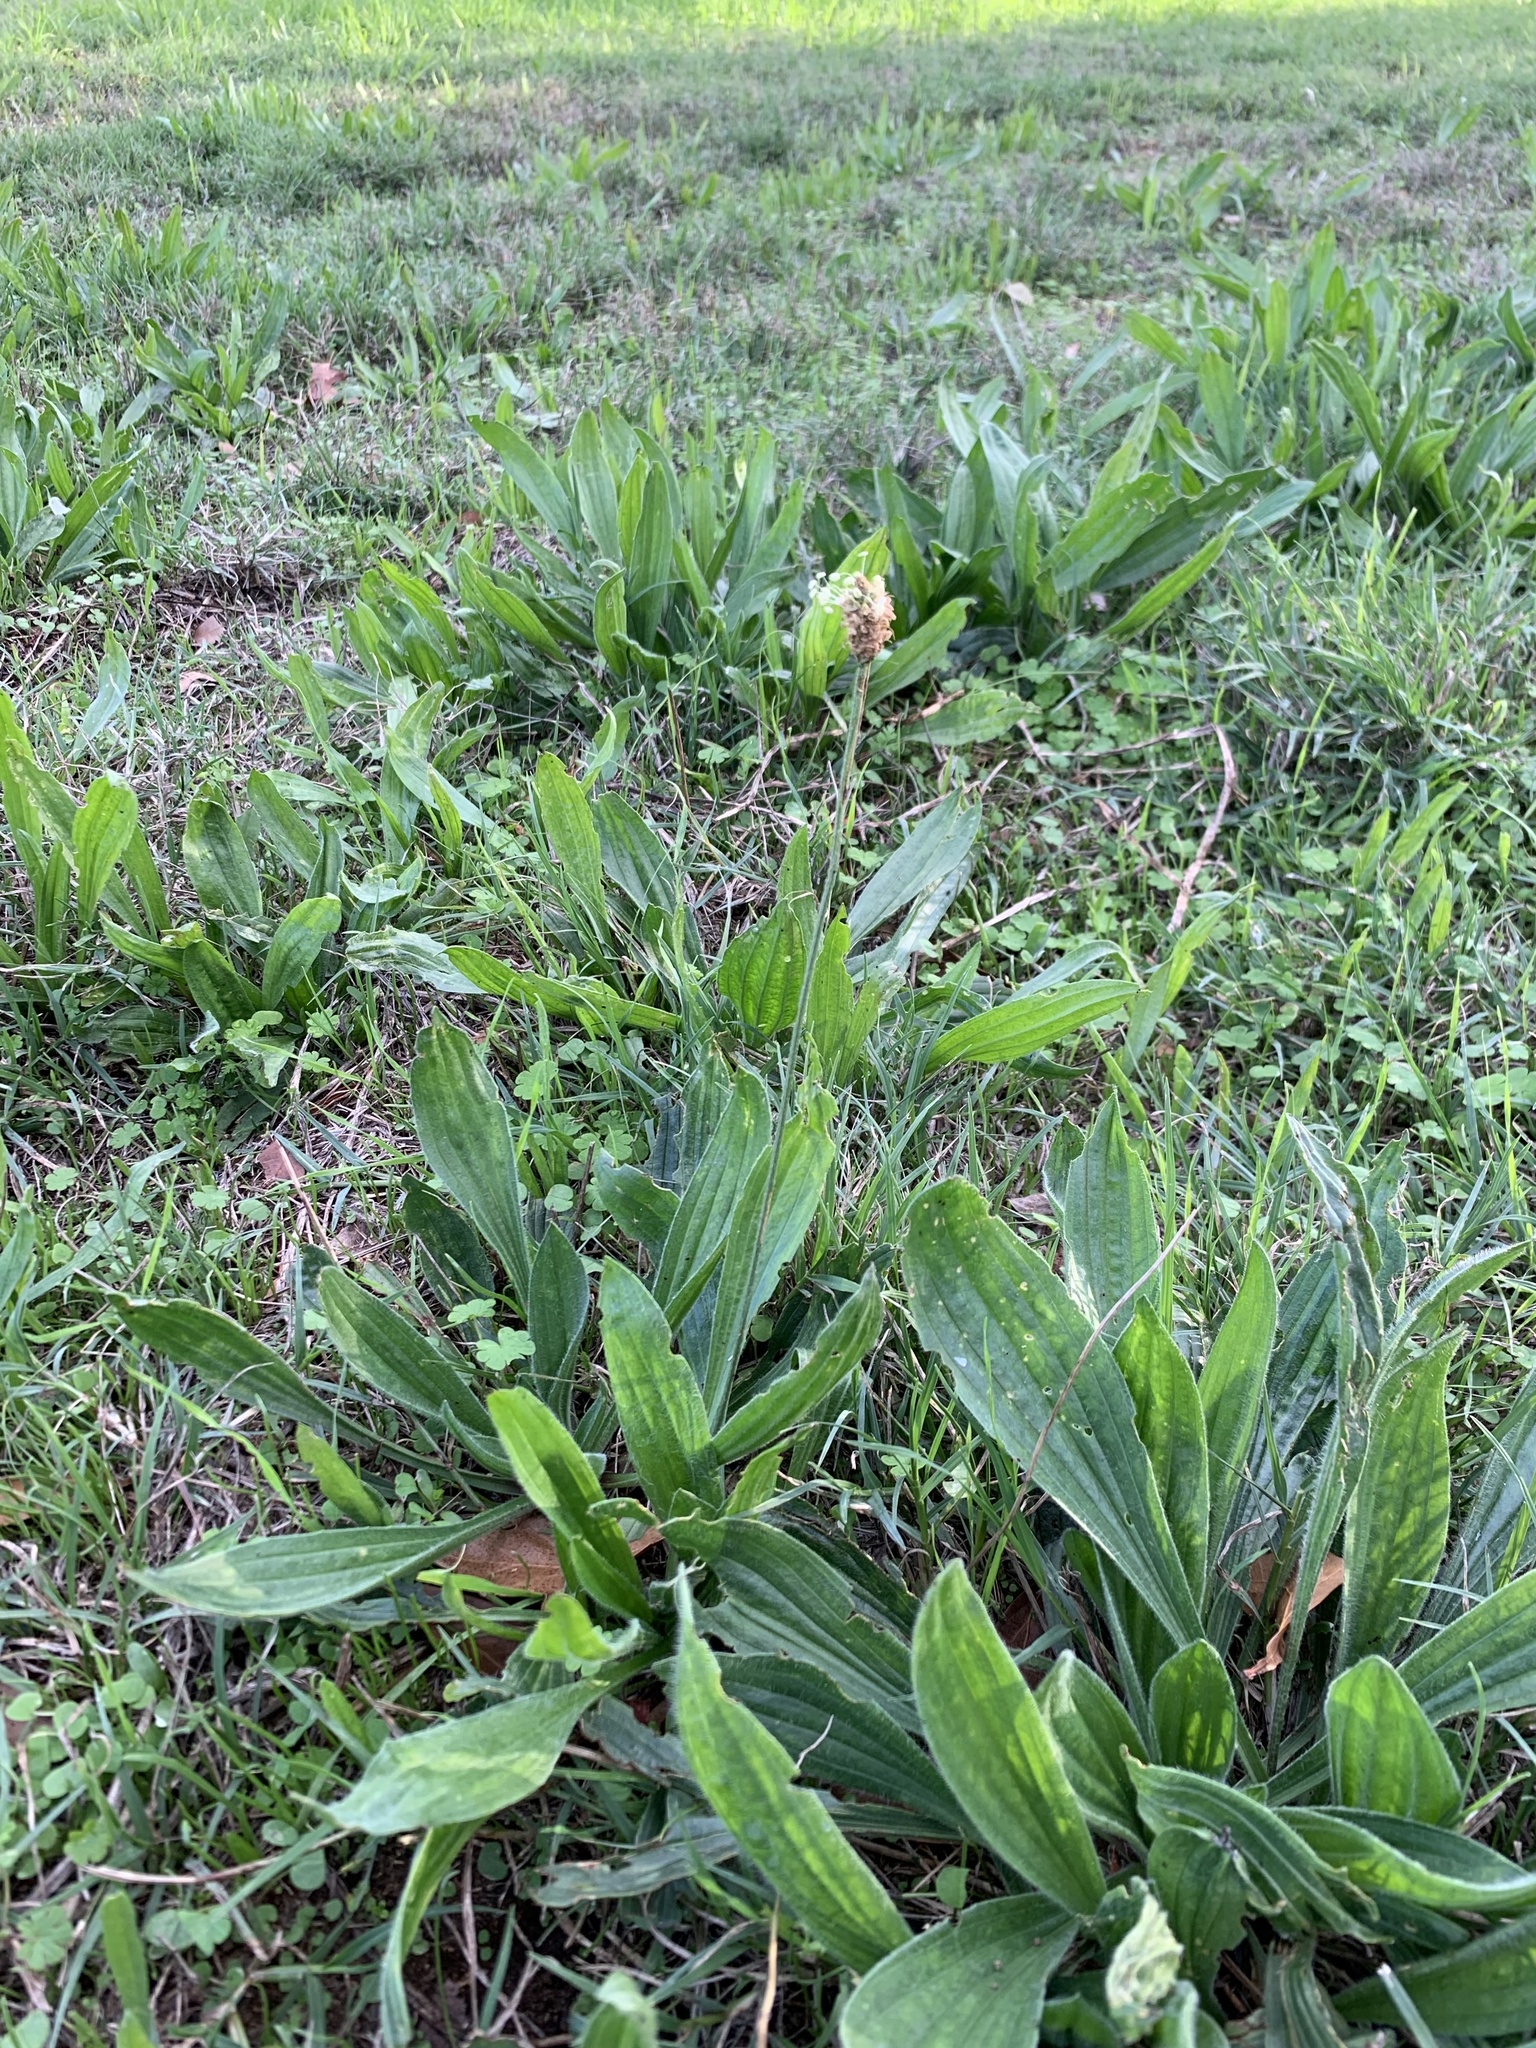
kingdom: Plantae
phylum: Tracheophyta
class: Magnoliopsida
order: Lamiales
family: Plantaginaceae
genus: Plantago
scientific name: Plantago lanceolata
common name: Ribwort plantain
